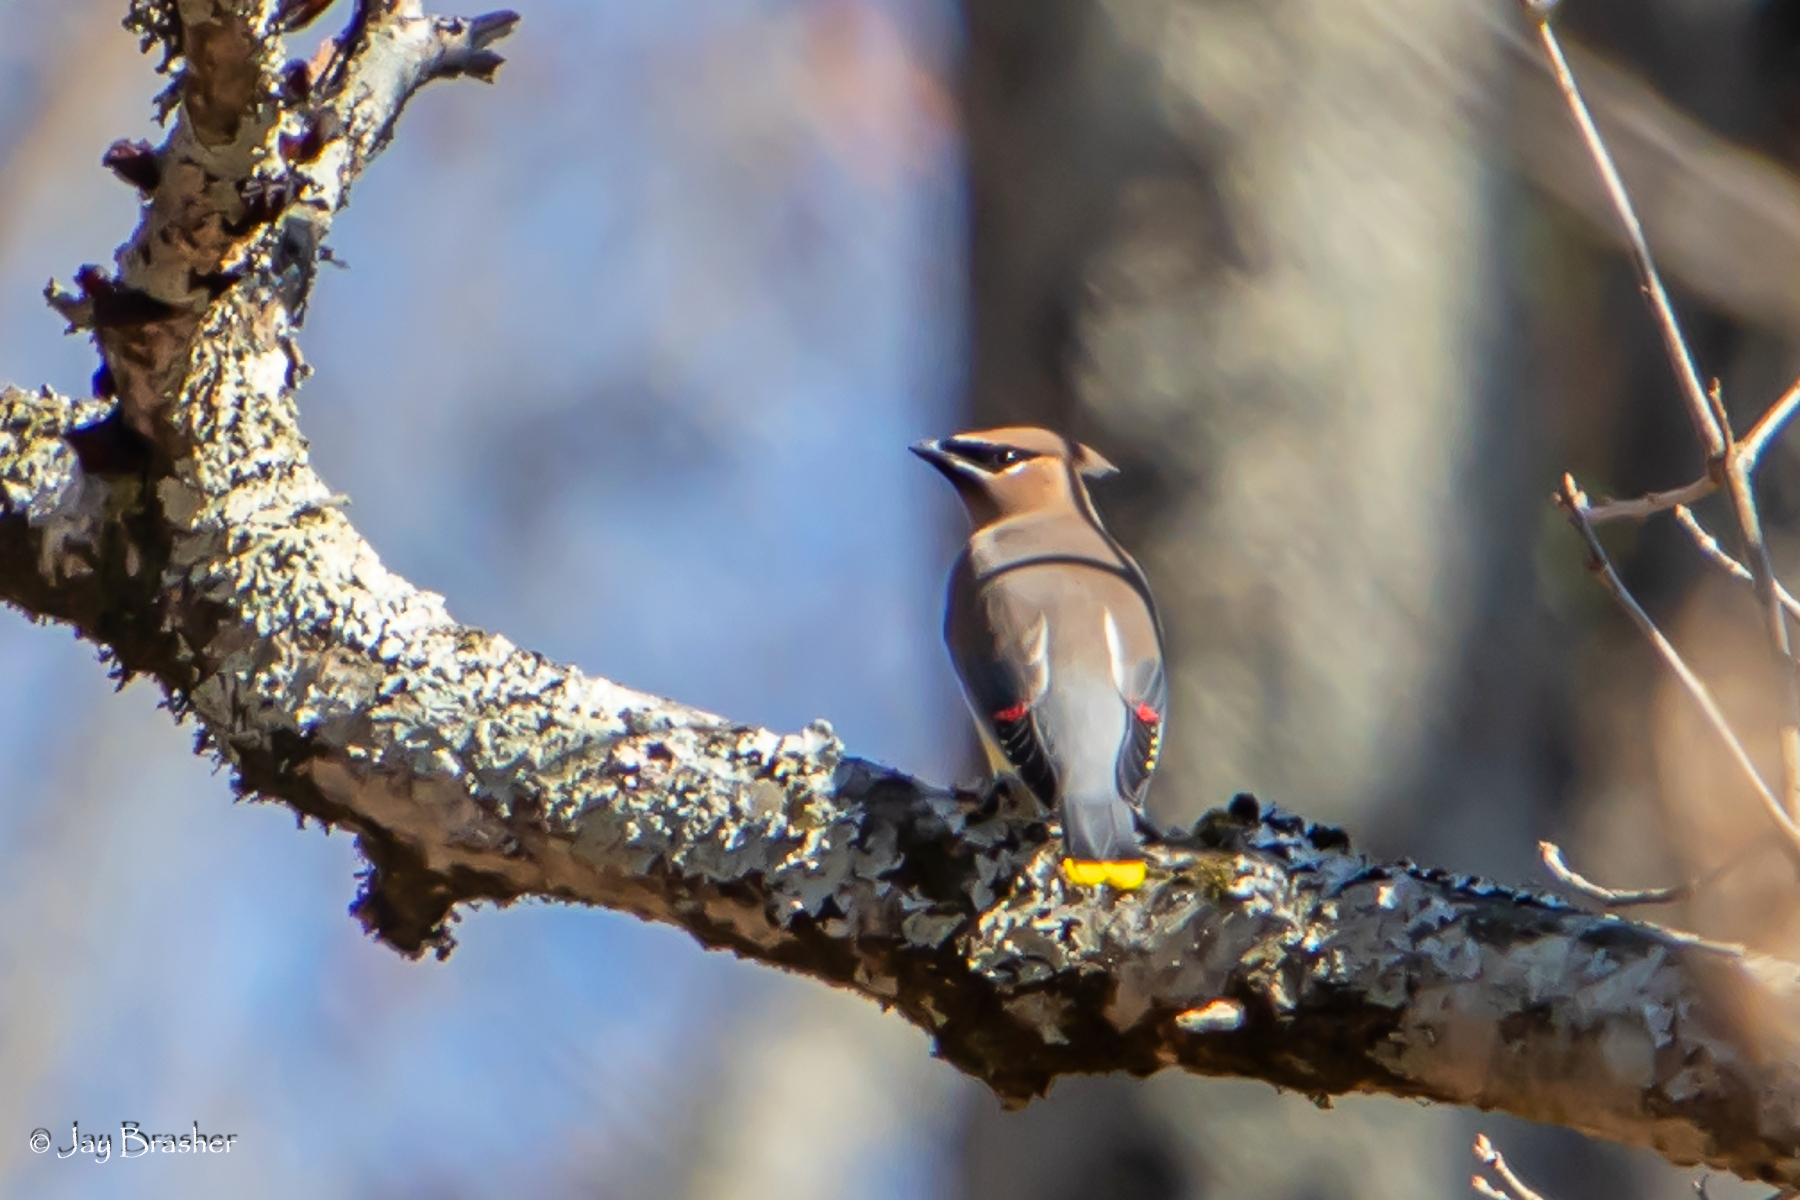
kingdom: Animalia
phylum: Chordata
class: Aves
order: Passeriformes
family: Bombycillidae
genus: Bombycilla
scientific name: Bombycilla cedrorum
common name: Cedar waxwing
